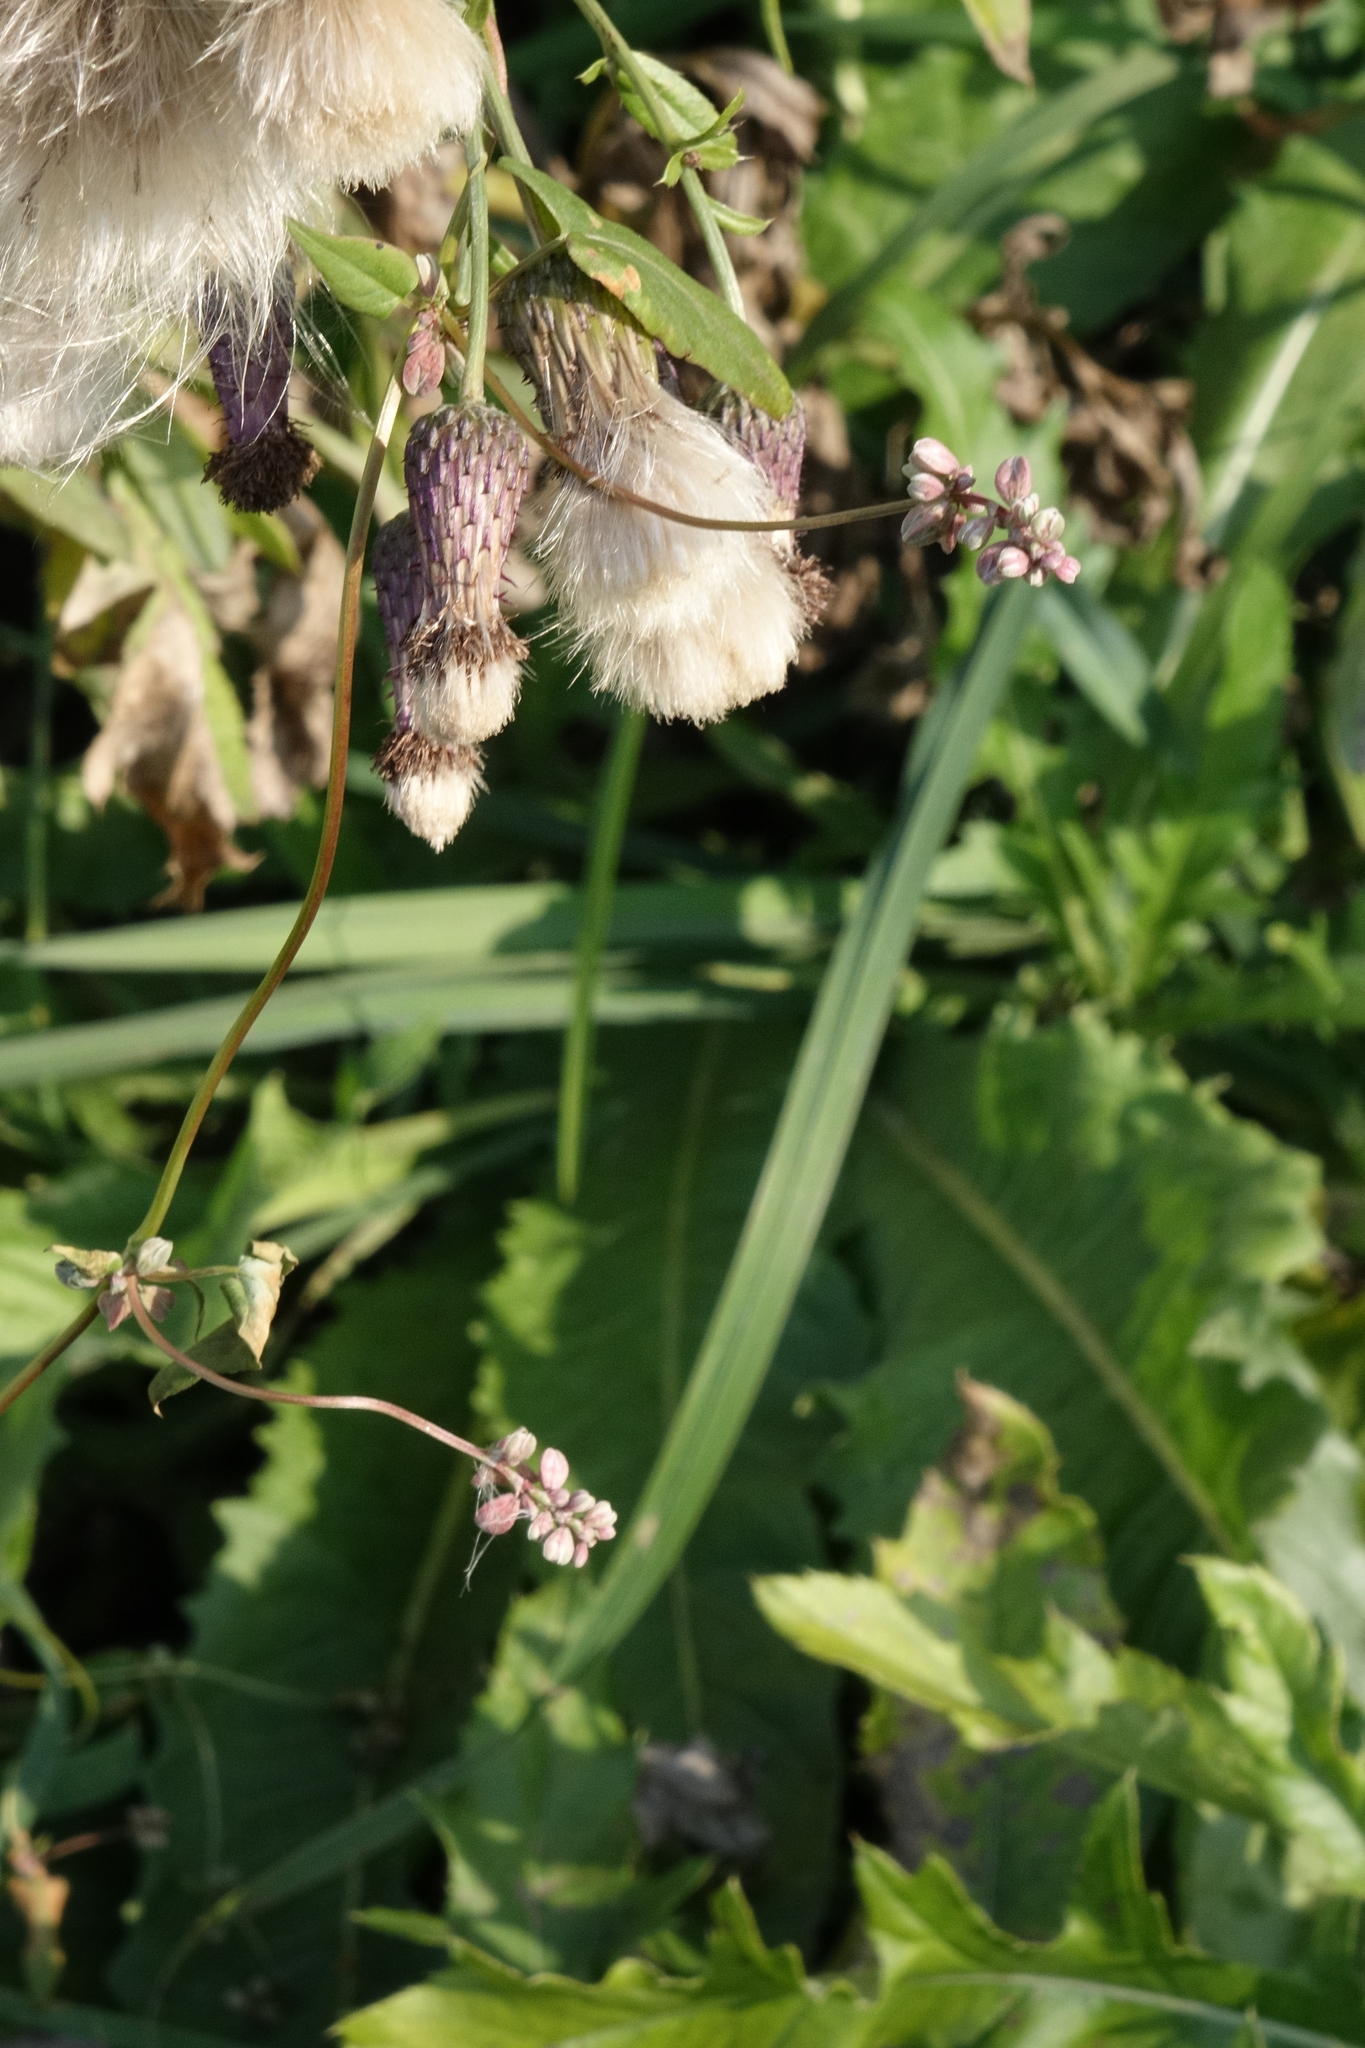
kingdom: Plantae
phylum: Tracheophyta
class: Magnoliopsida
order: Caryophyllales
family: Polygonaceae
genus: Fallopia
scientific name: Fallopia convolvulus
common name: Black bindweed
